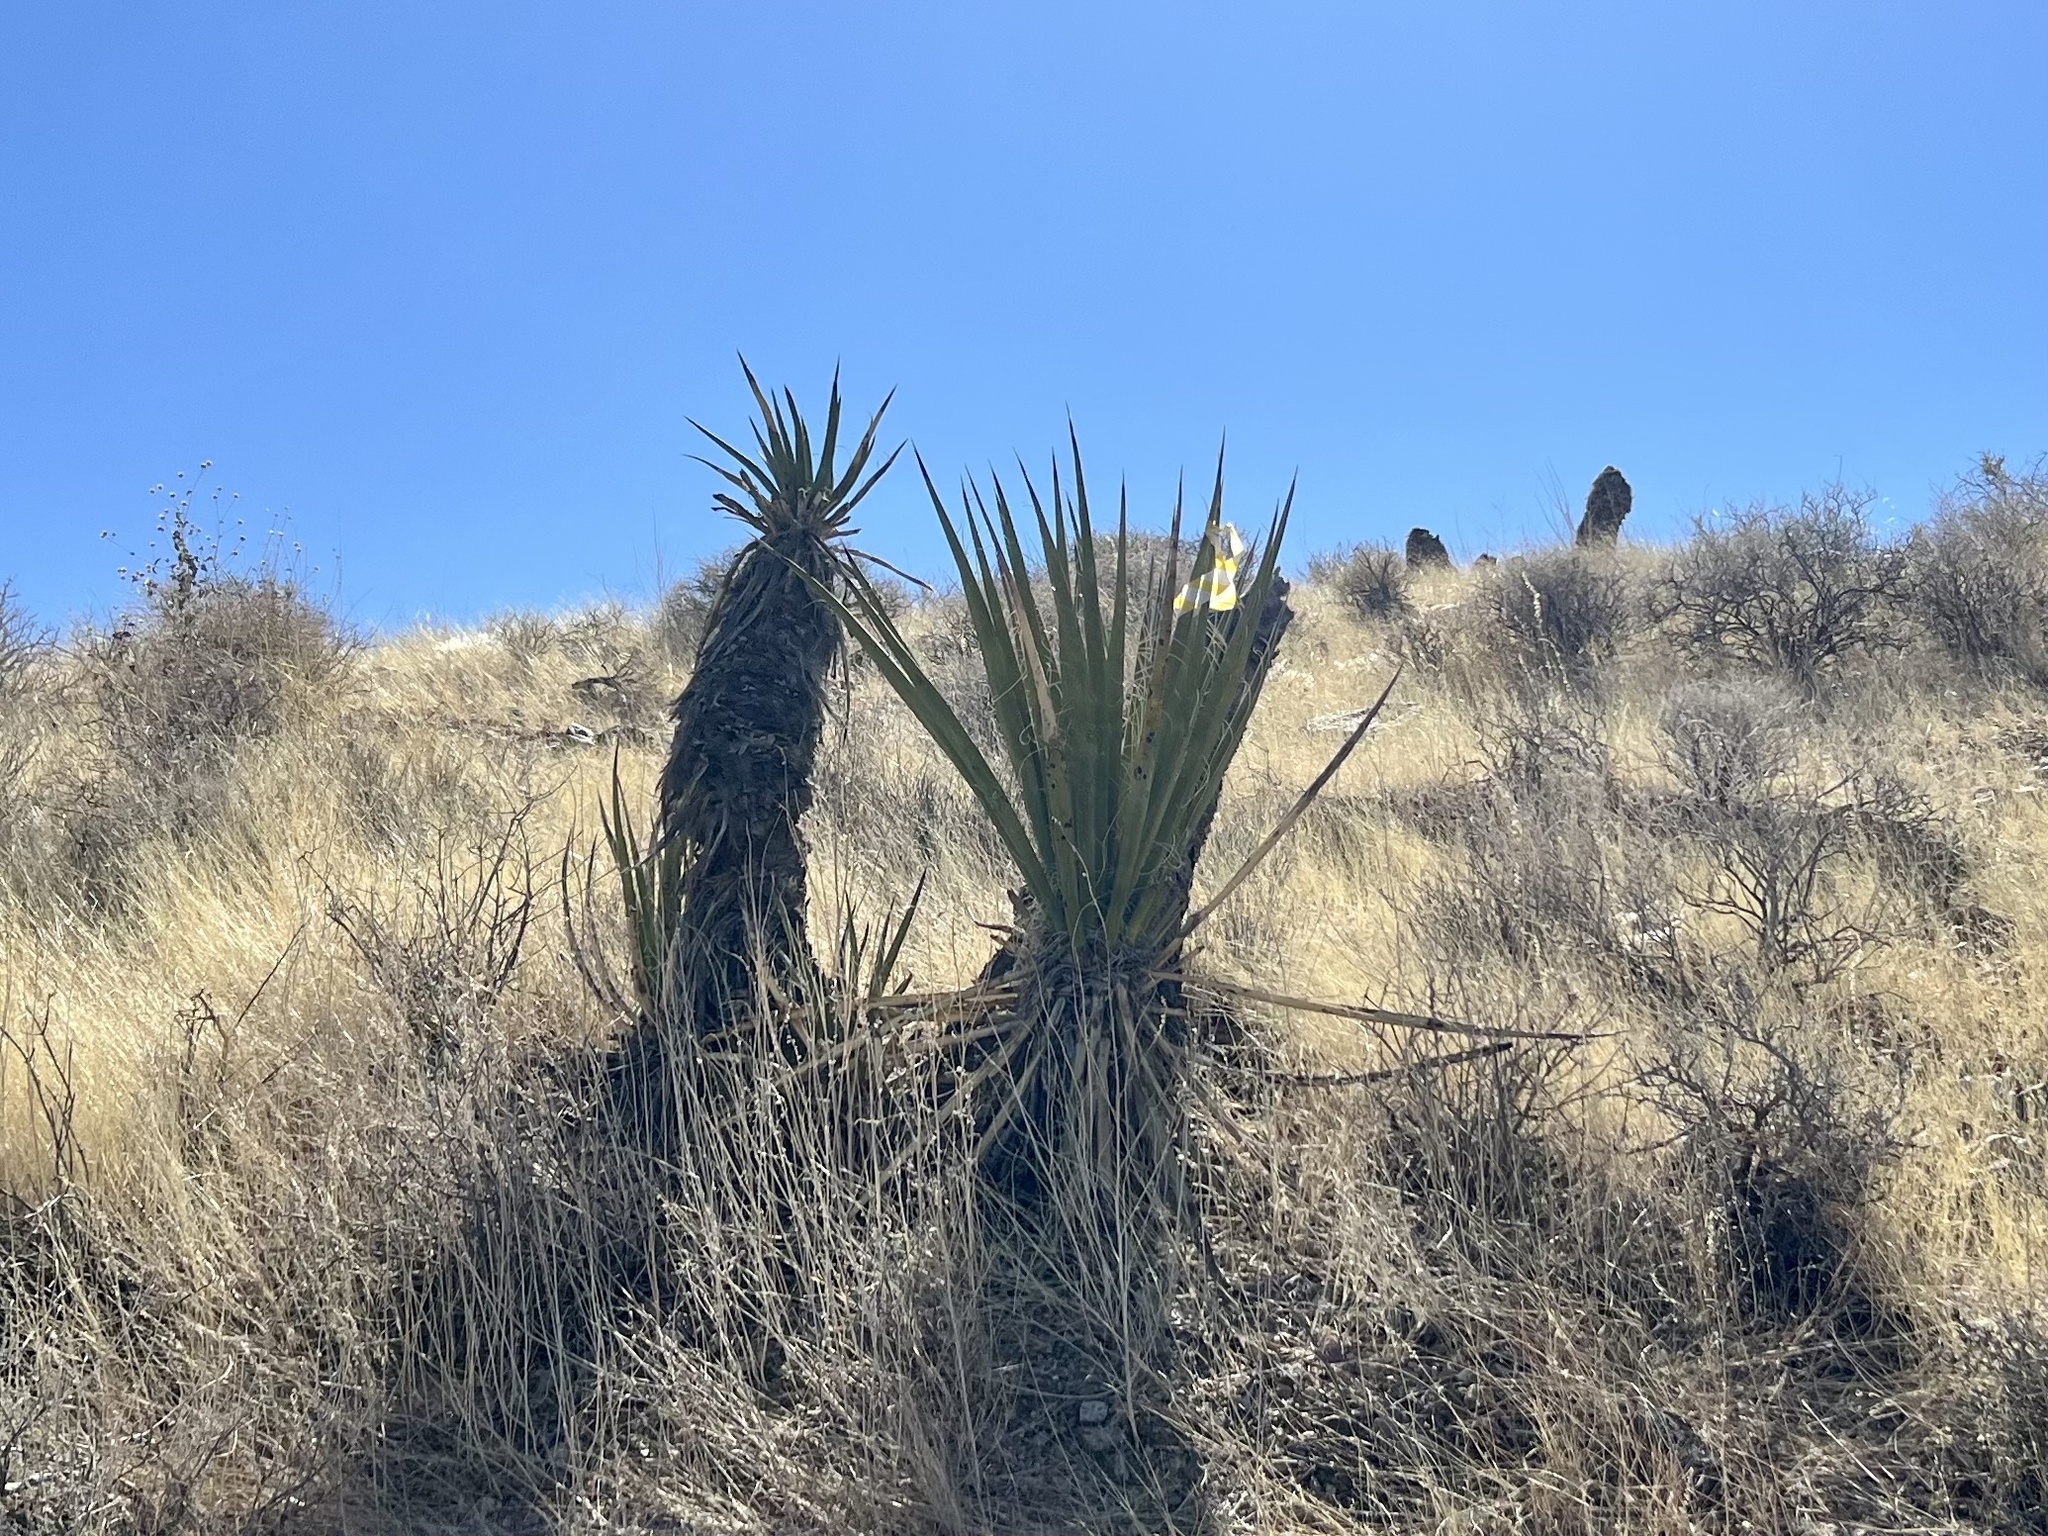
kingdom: Plantae
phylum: Tracheophyta
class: Liliopsida
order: Asparagales
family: Asparagaceae
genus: Yucca
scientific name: Yucca schidigera
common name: Mojave yucca
